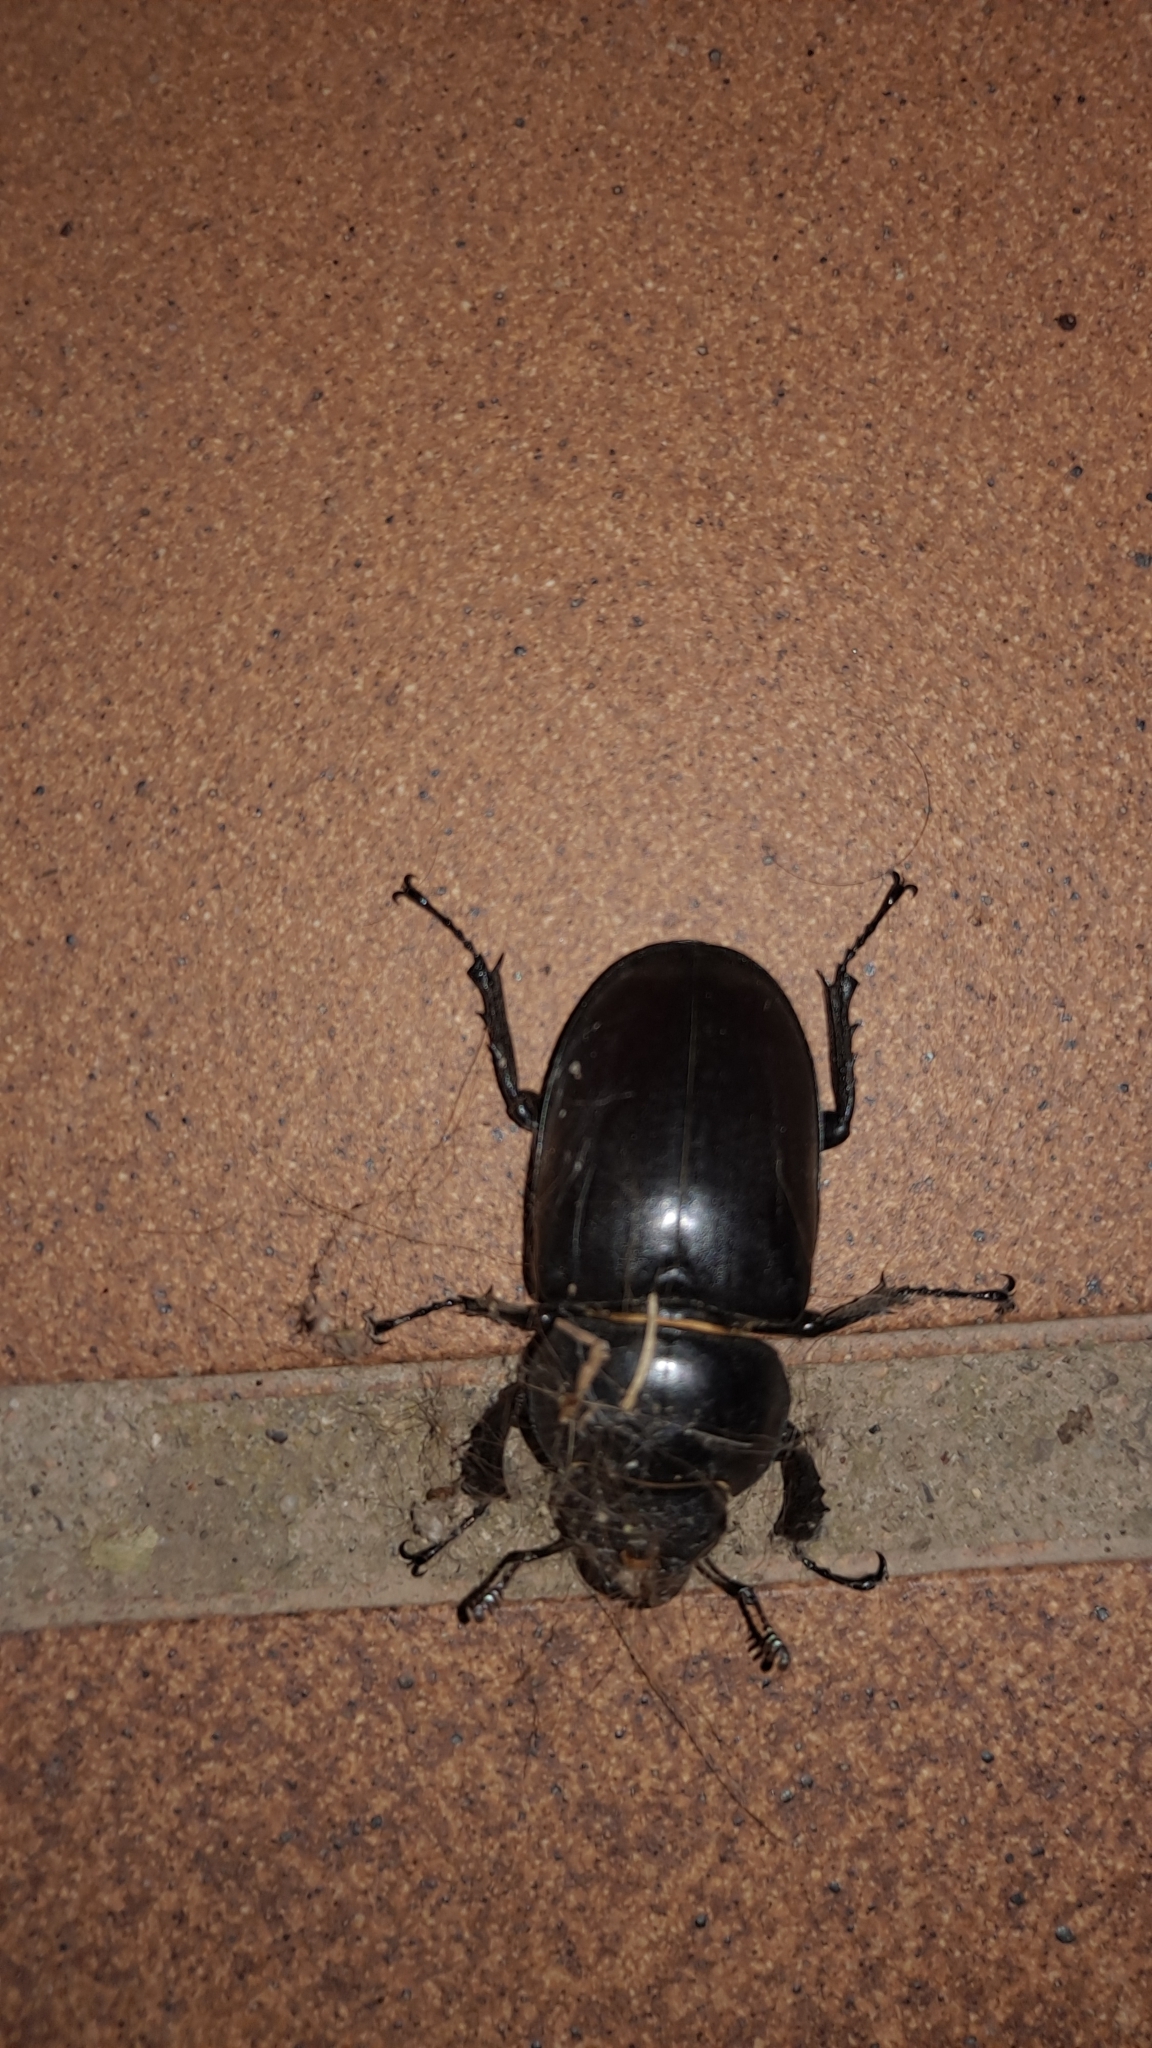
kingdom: Animalia
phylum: Arthropoda
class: Insecta
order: Coleoptera
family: Lucanidae
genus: Lucanus
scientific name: Lucanus cervus
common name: Stag beetle
